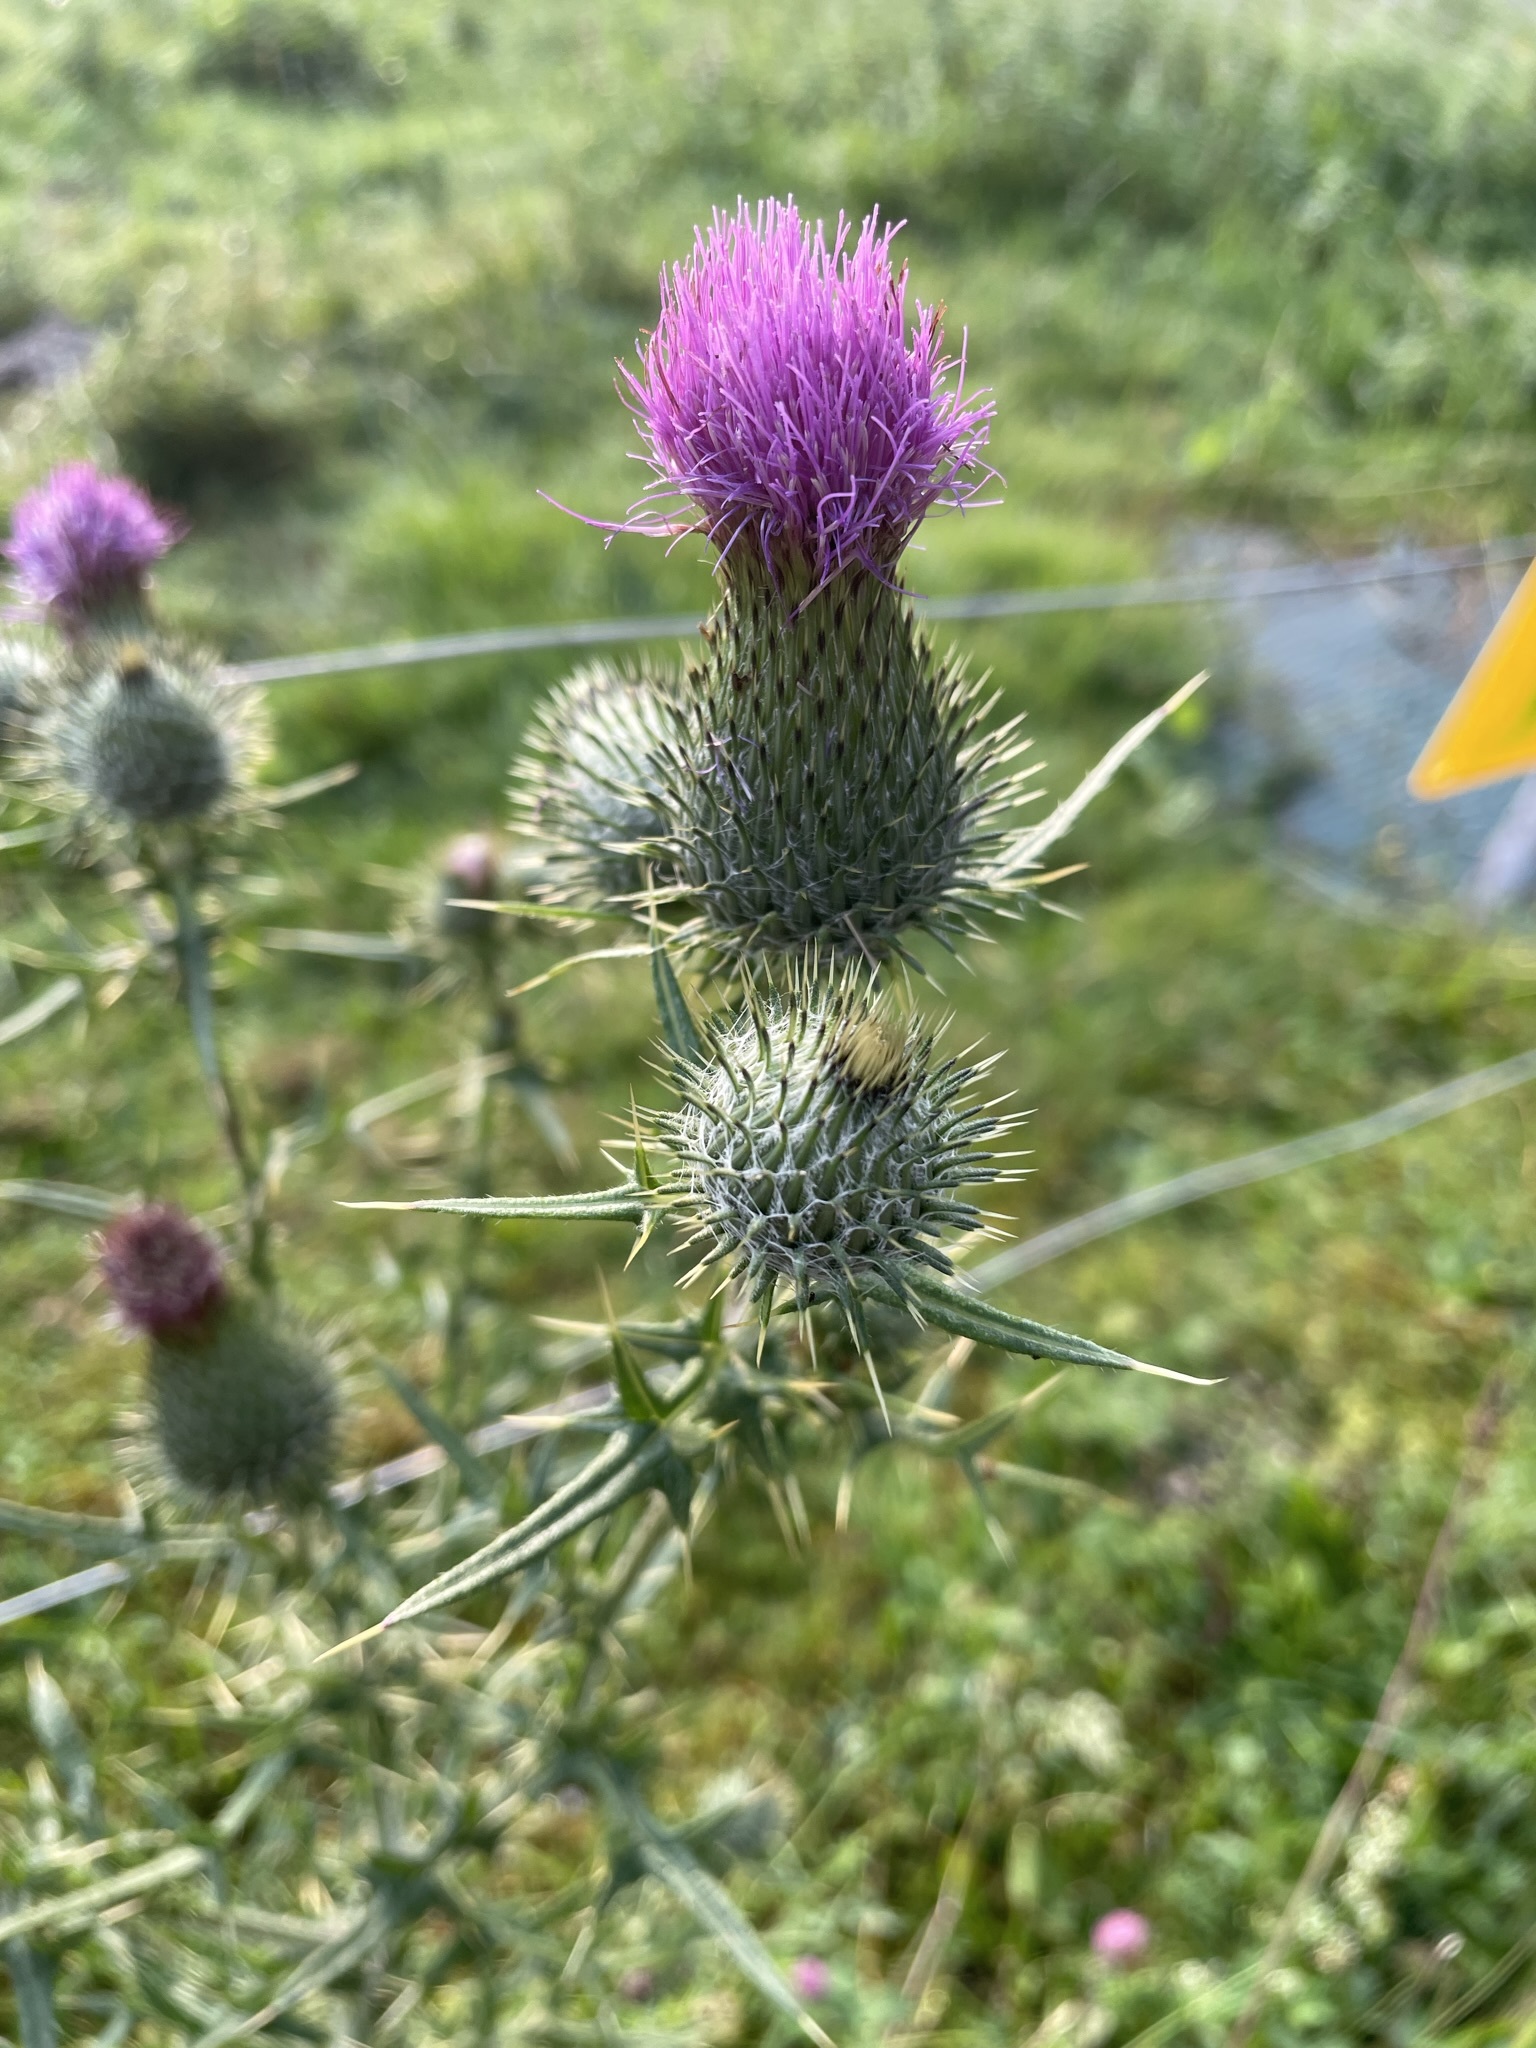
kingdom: Plantae
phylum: Tracheophyta
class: Magnoliopsida
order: Asterales
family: Asteraceae
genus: Cirsium
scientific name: Cirsium vulgare
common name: Bull thistle
